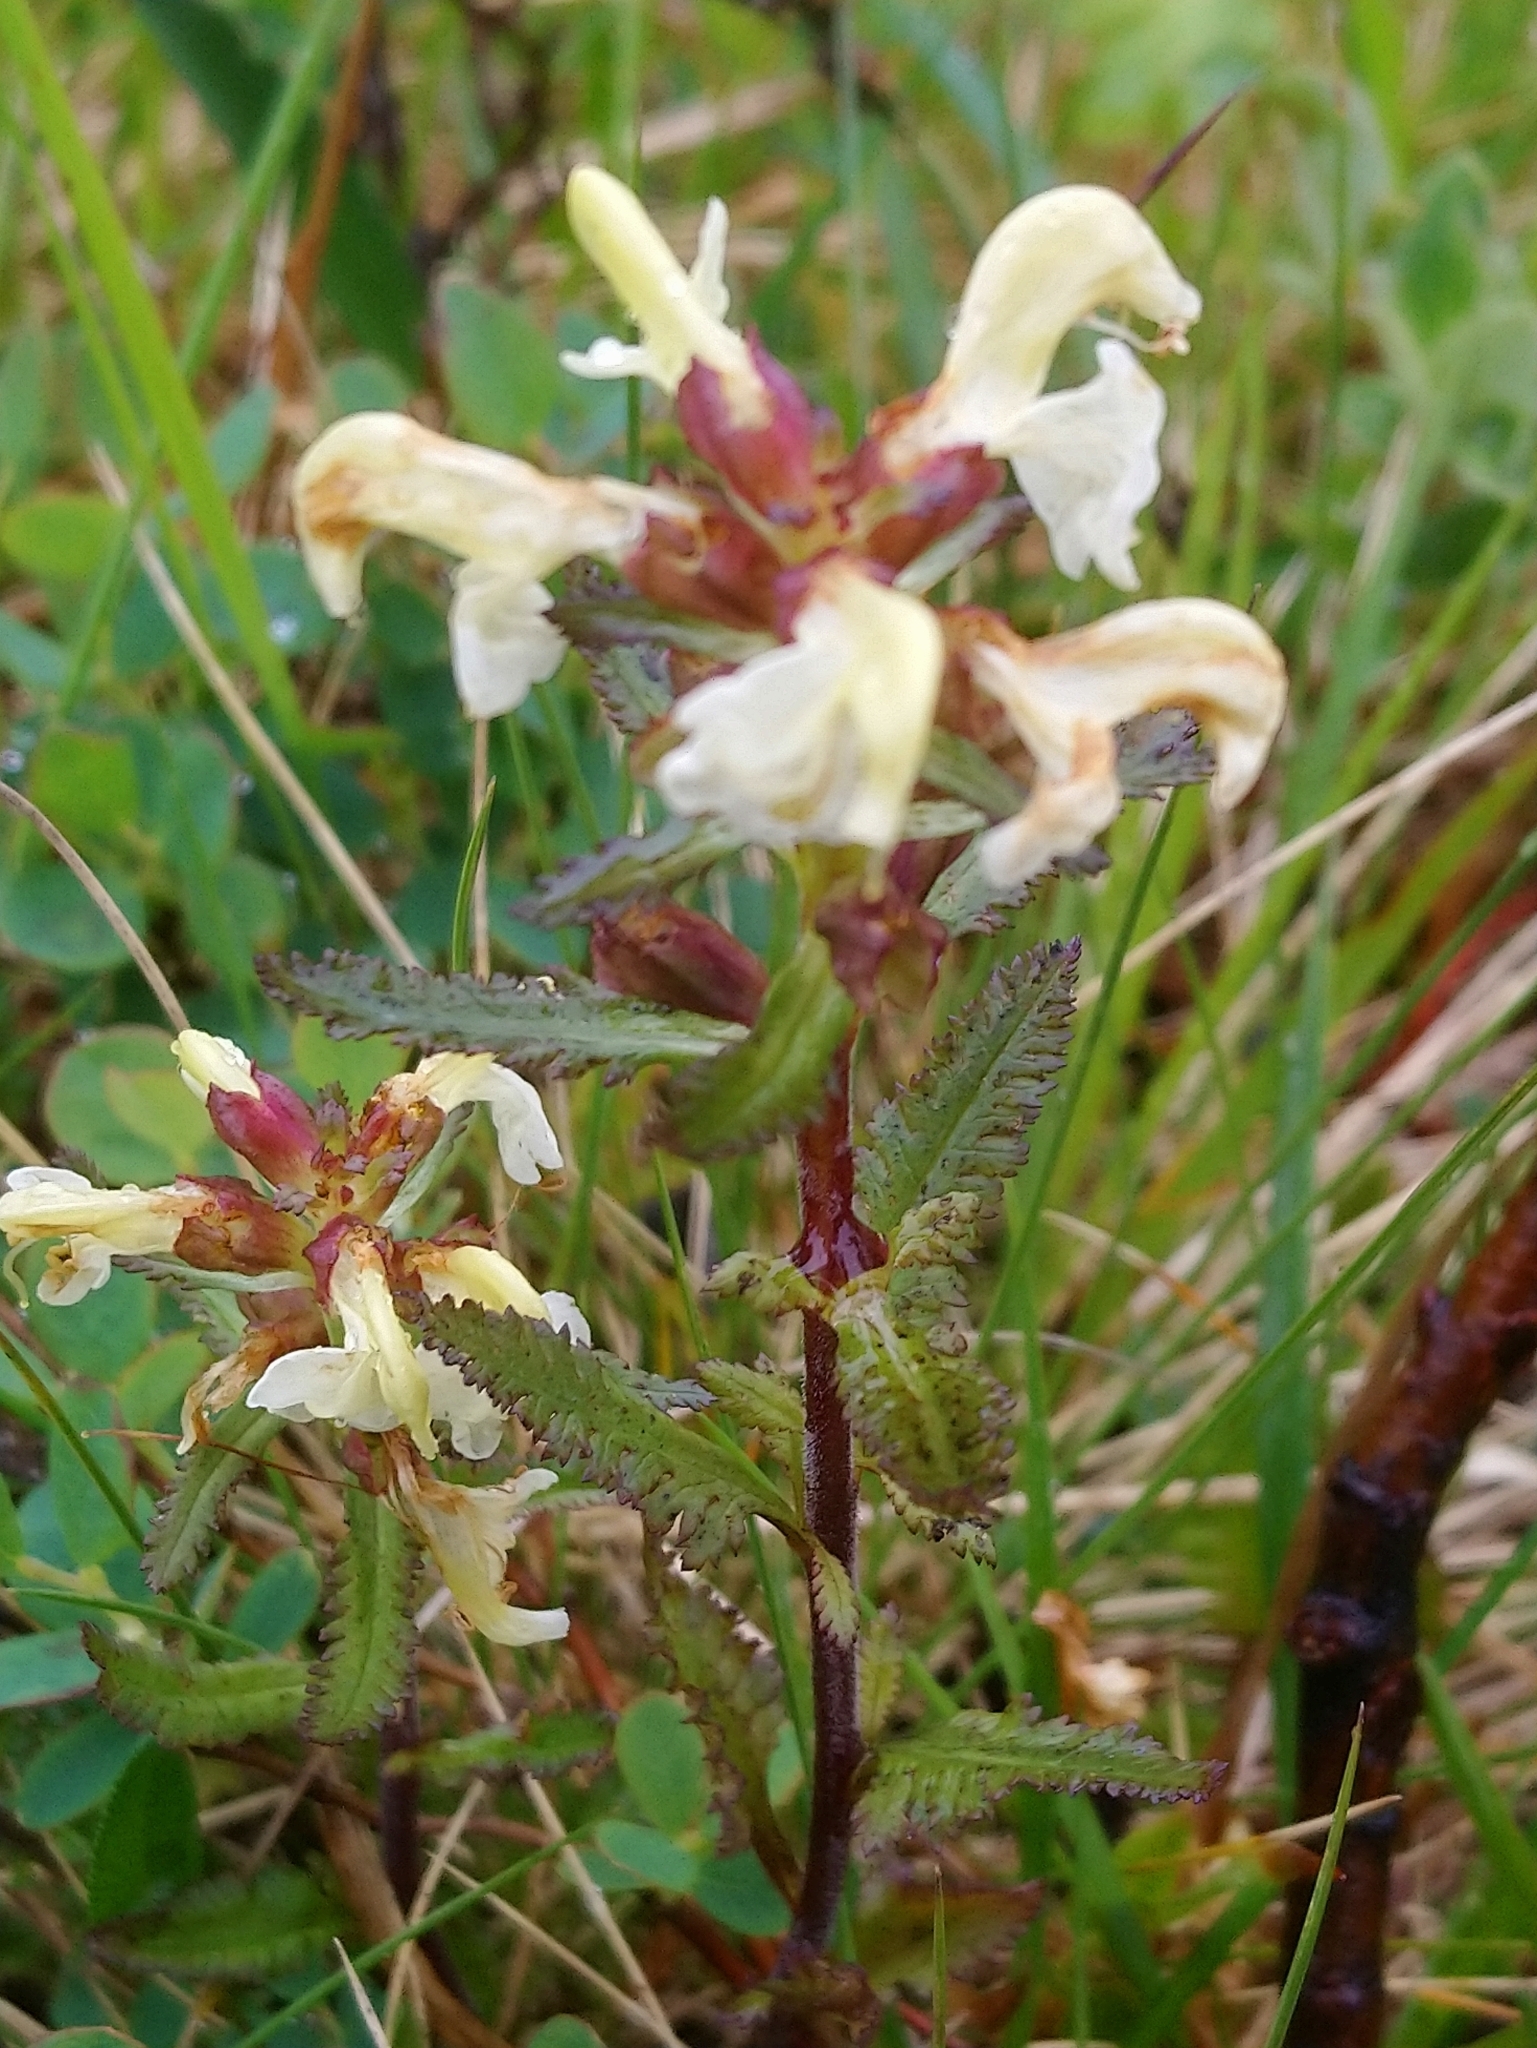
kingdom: Plantae
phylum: Tracheophyta
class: Magnoliopsida
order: Lamiales
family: Orobanchaceae
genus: Pedicularis
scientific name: Pedicularis lapponica
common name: Lapland lousewort
